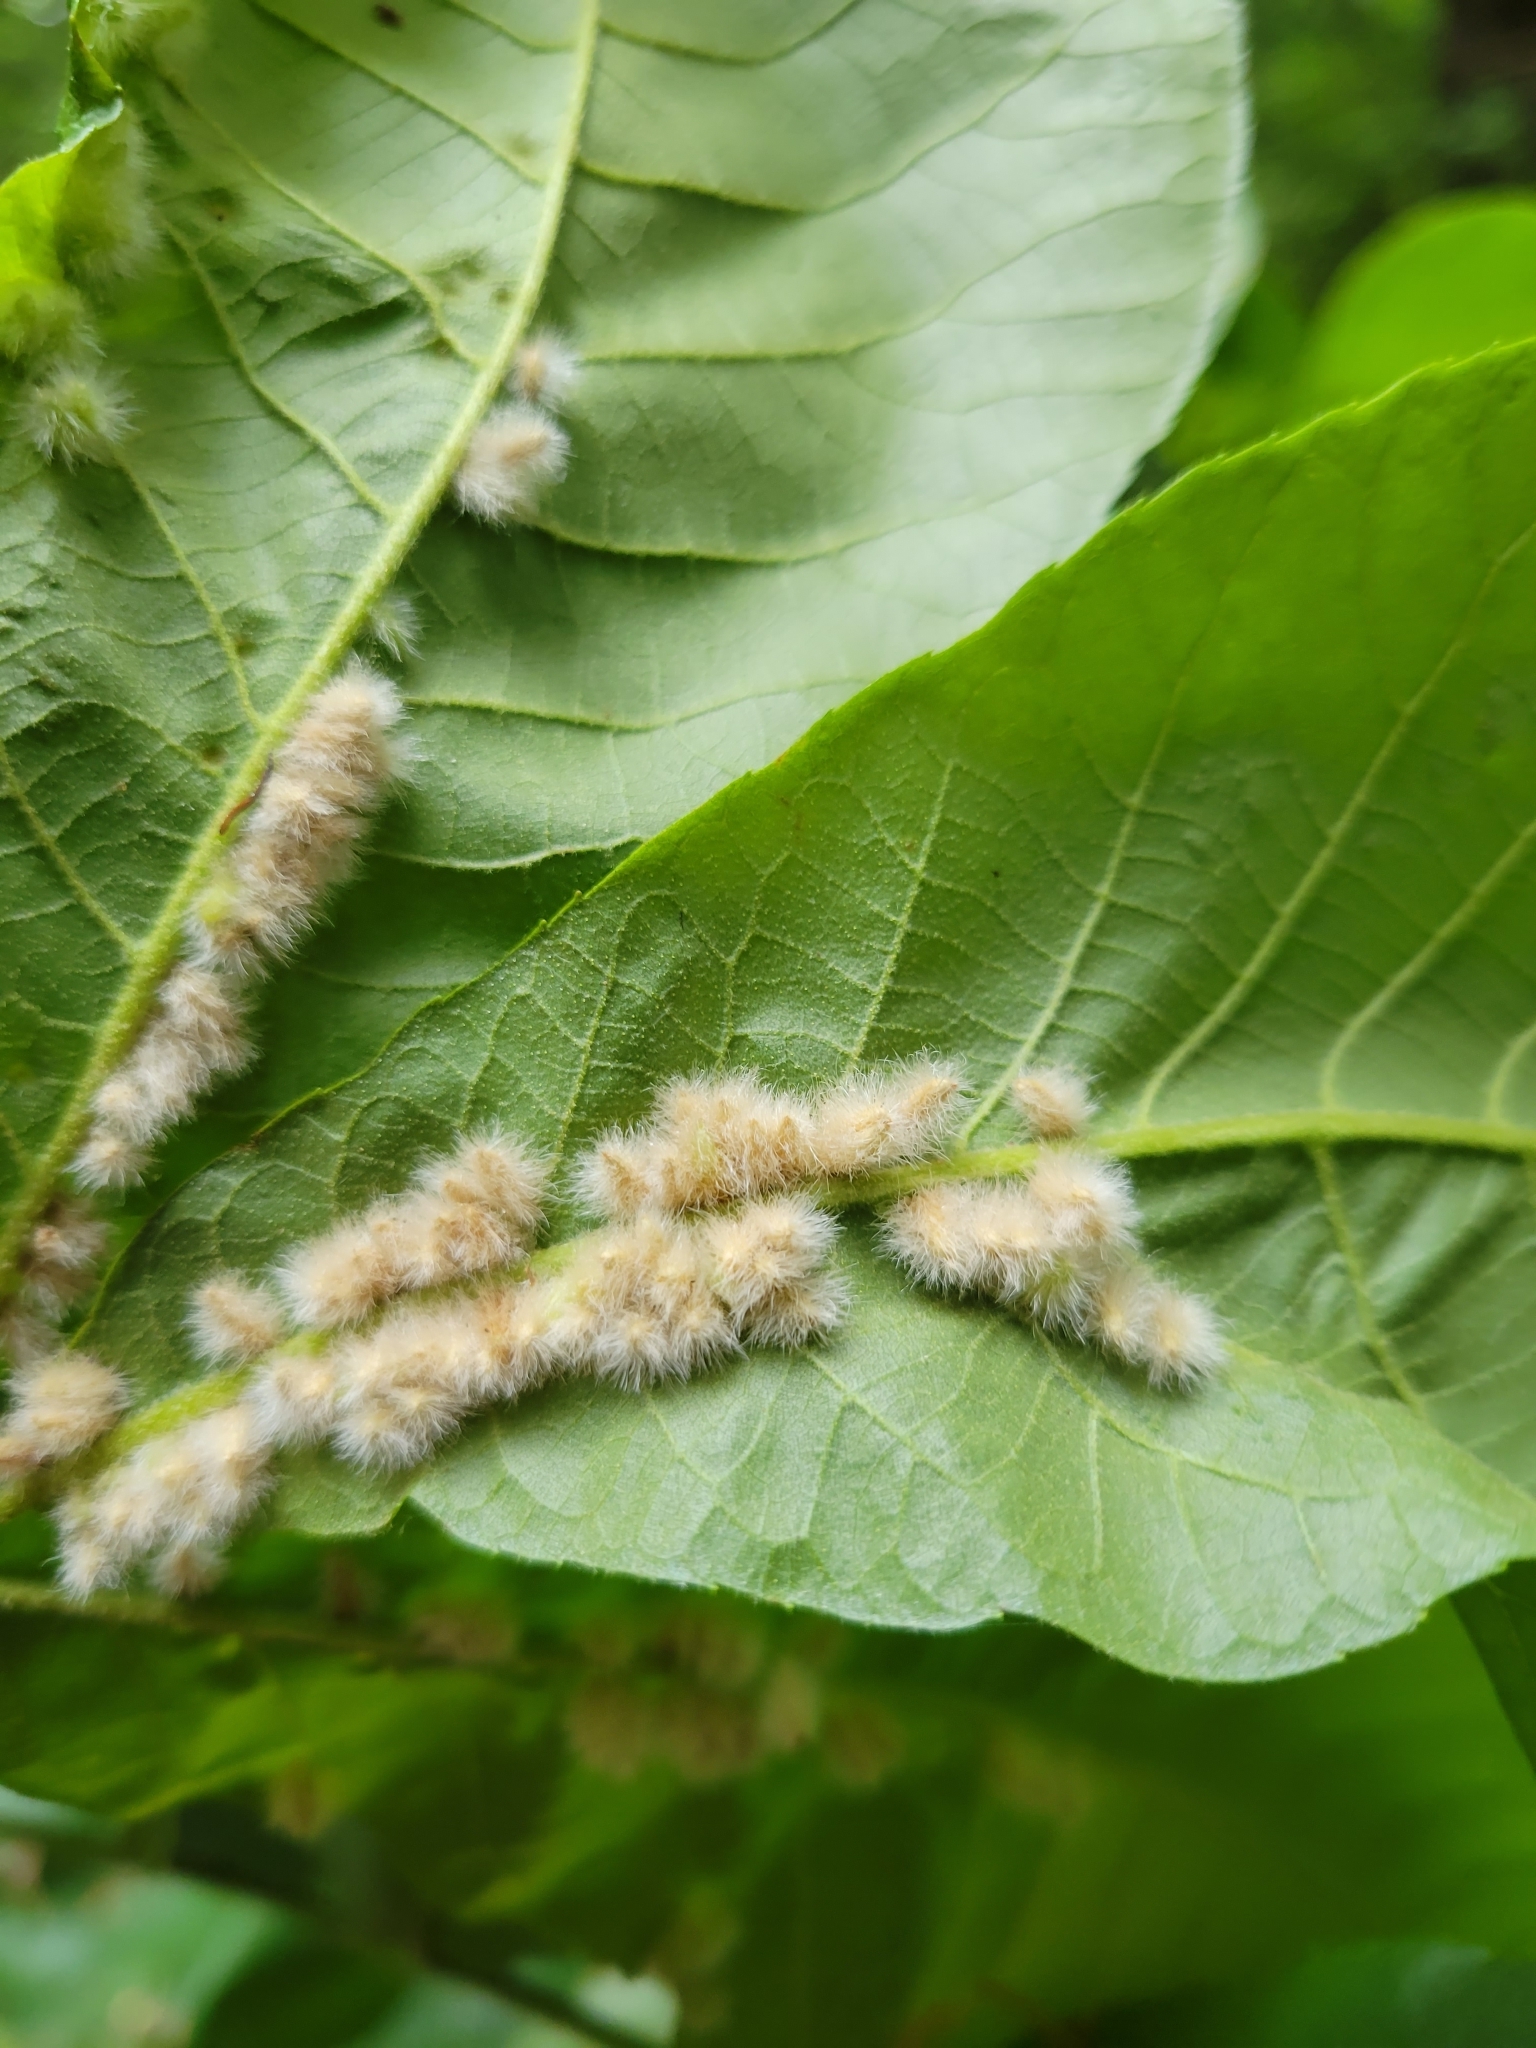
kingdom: Animalia
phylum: Arthropoda
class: Insecta
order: Diptera
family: Cecidomyiidae
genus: Caryomyia
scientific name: Caryomyia aggregata
